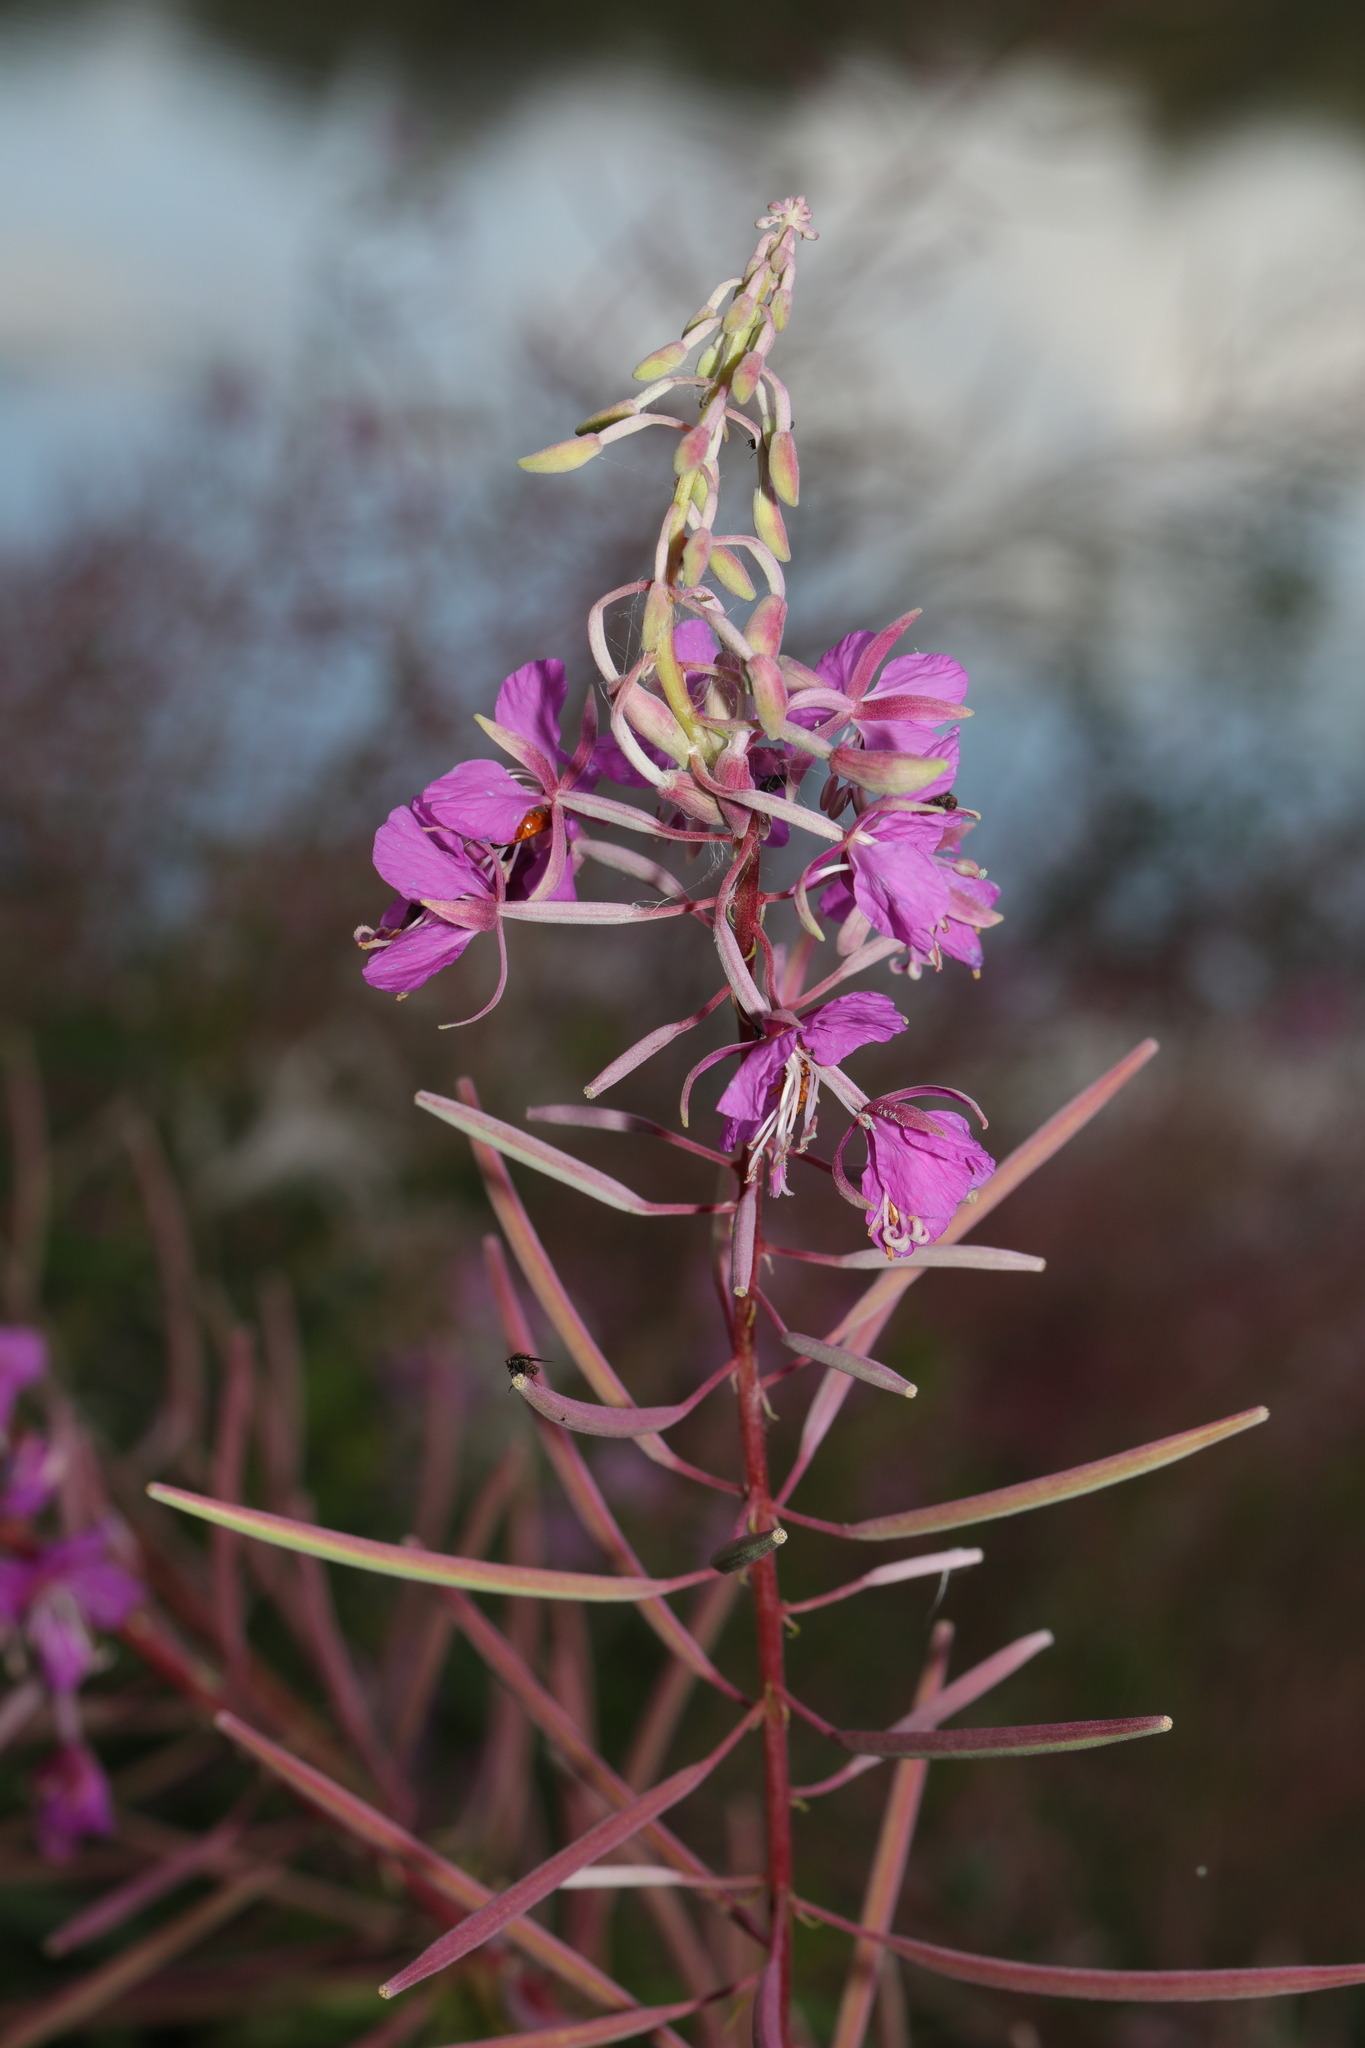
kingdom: Plantae
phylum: Tracheophyta
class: Magnoliopsida
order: Myrtales
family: Onagraceae
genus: Chamaenerion
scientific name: Chamaenerion angustifolium
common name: Fireweed
